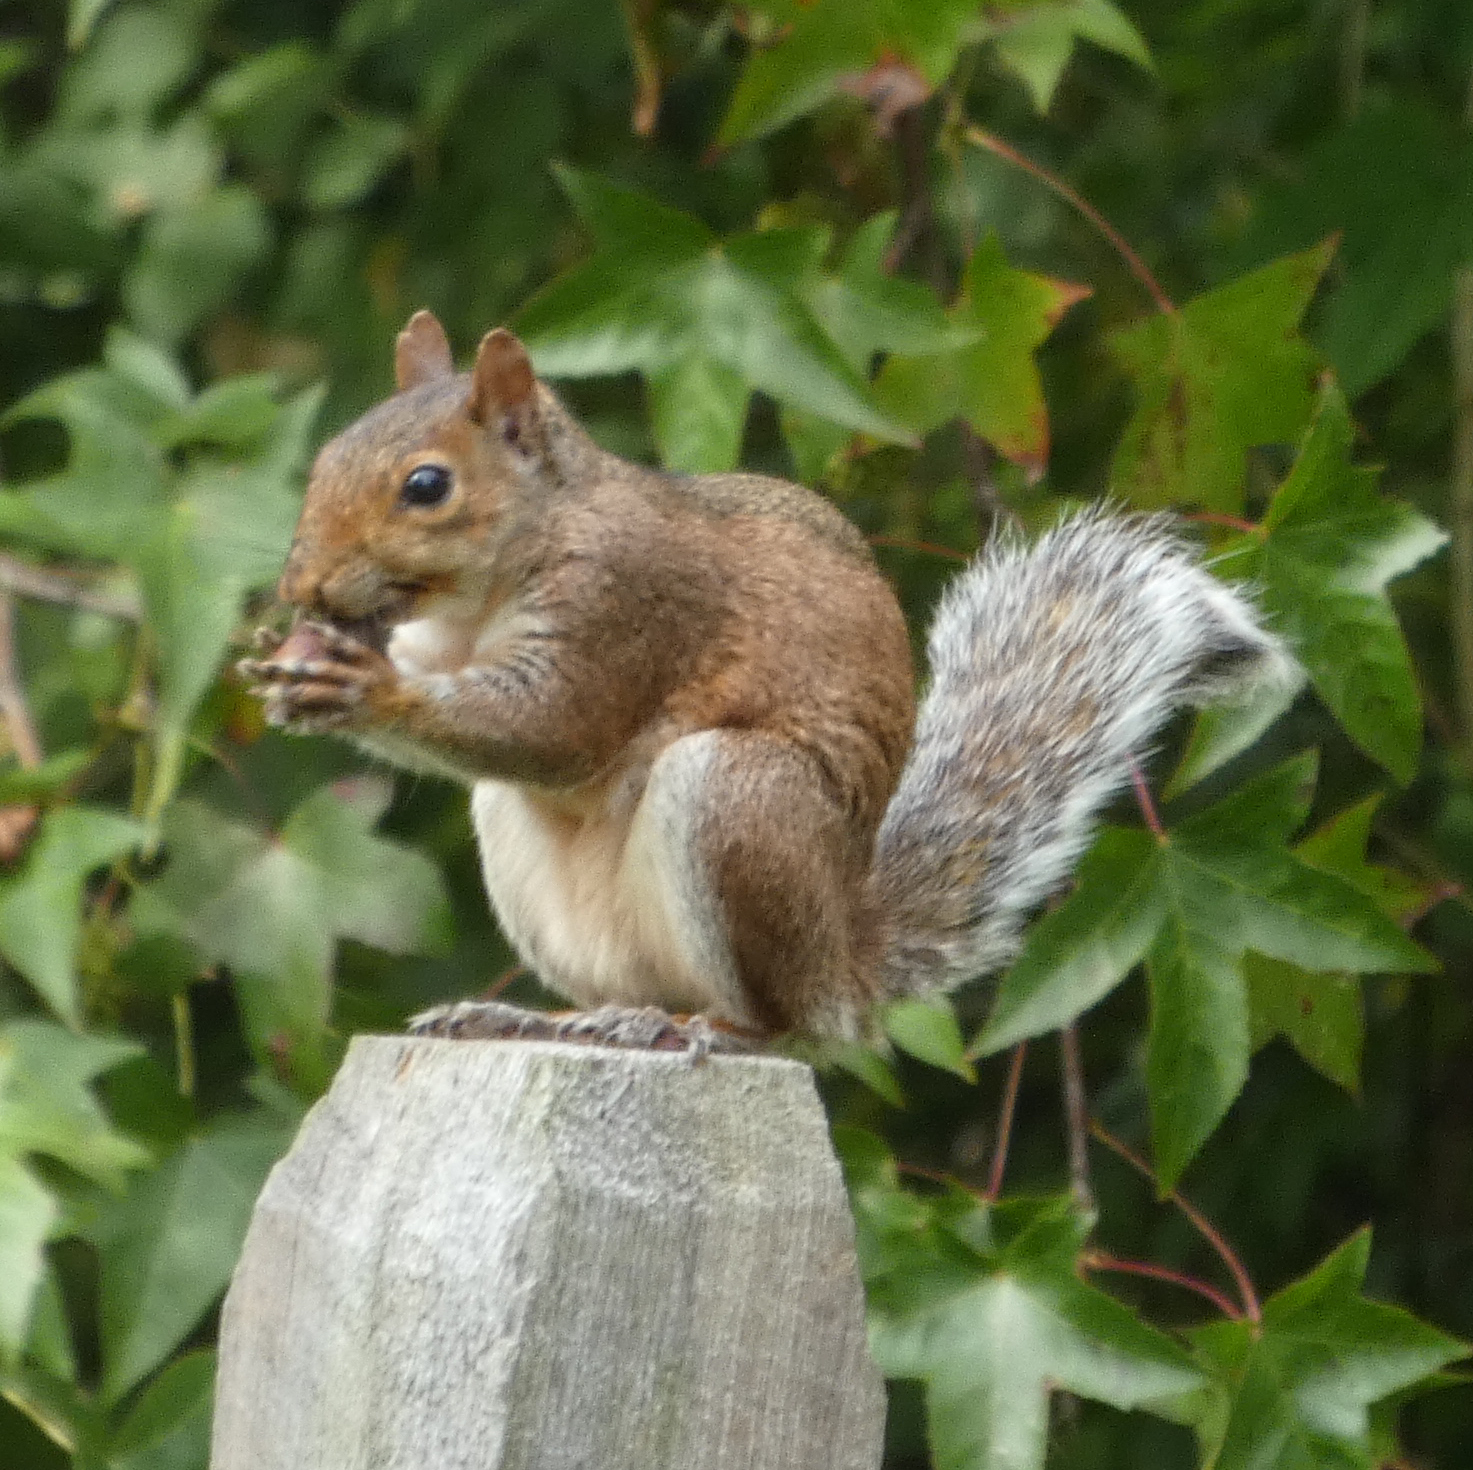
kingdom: Animalia
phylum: Chordata
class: Mammalia
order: Rodentia
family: Sciuridae
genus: Sciurus
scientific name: Sciurus carolinensis
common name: Eastern gray squirrel
